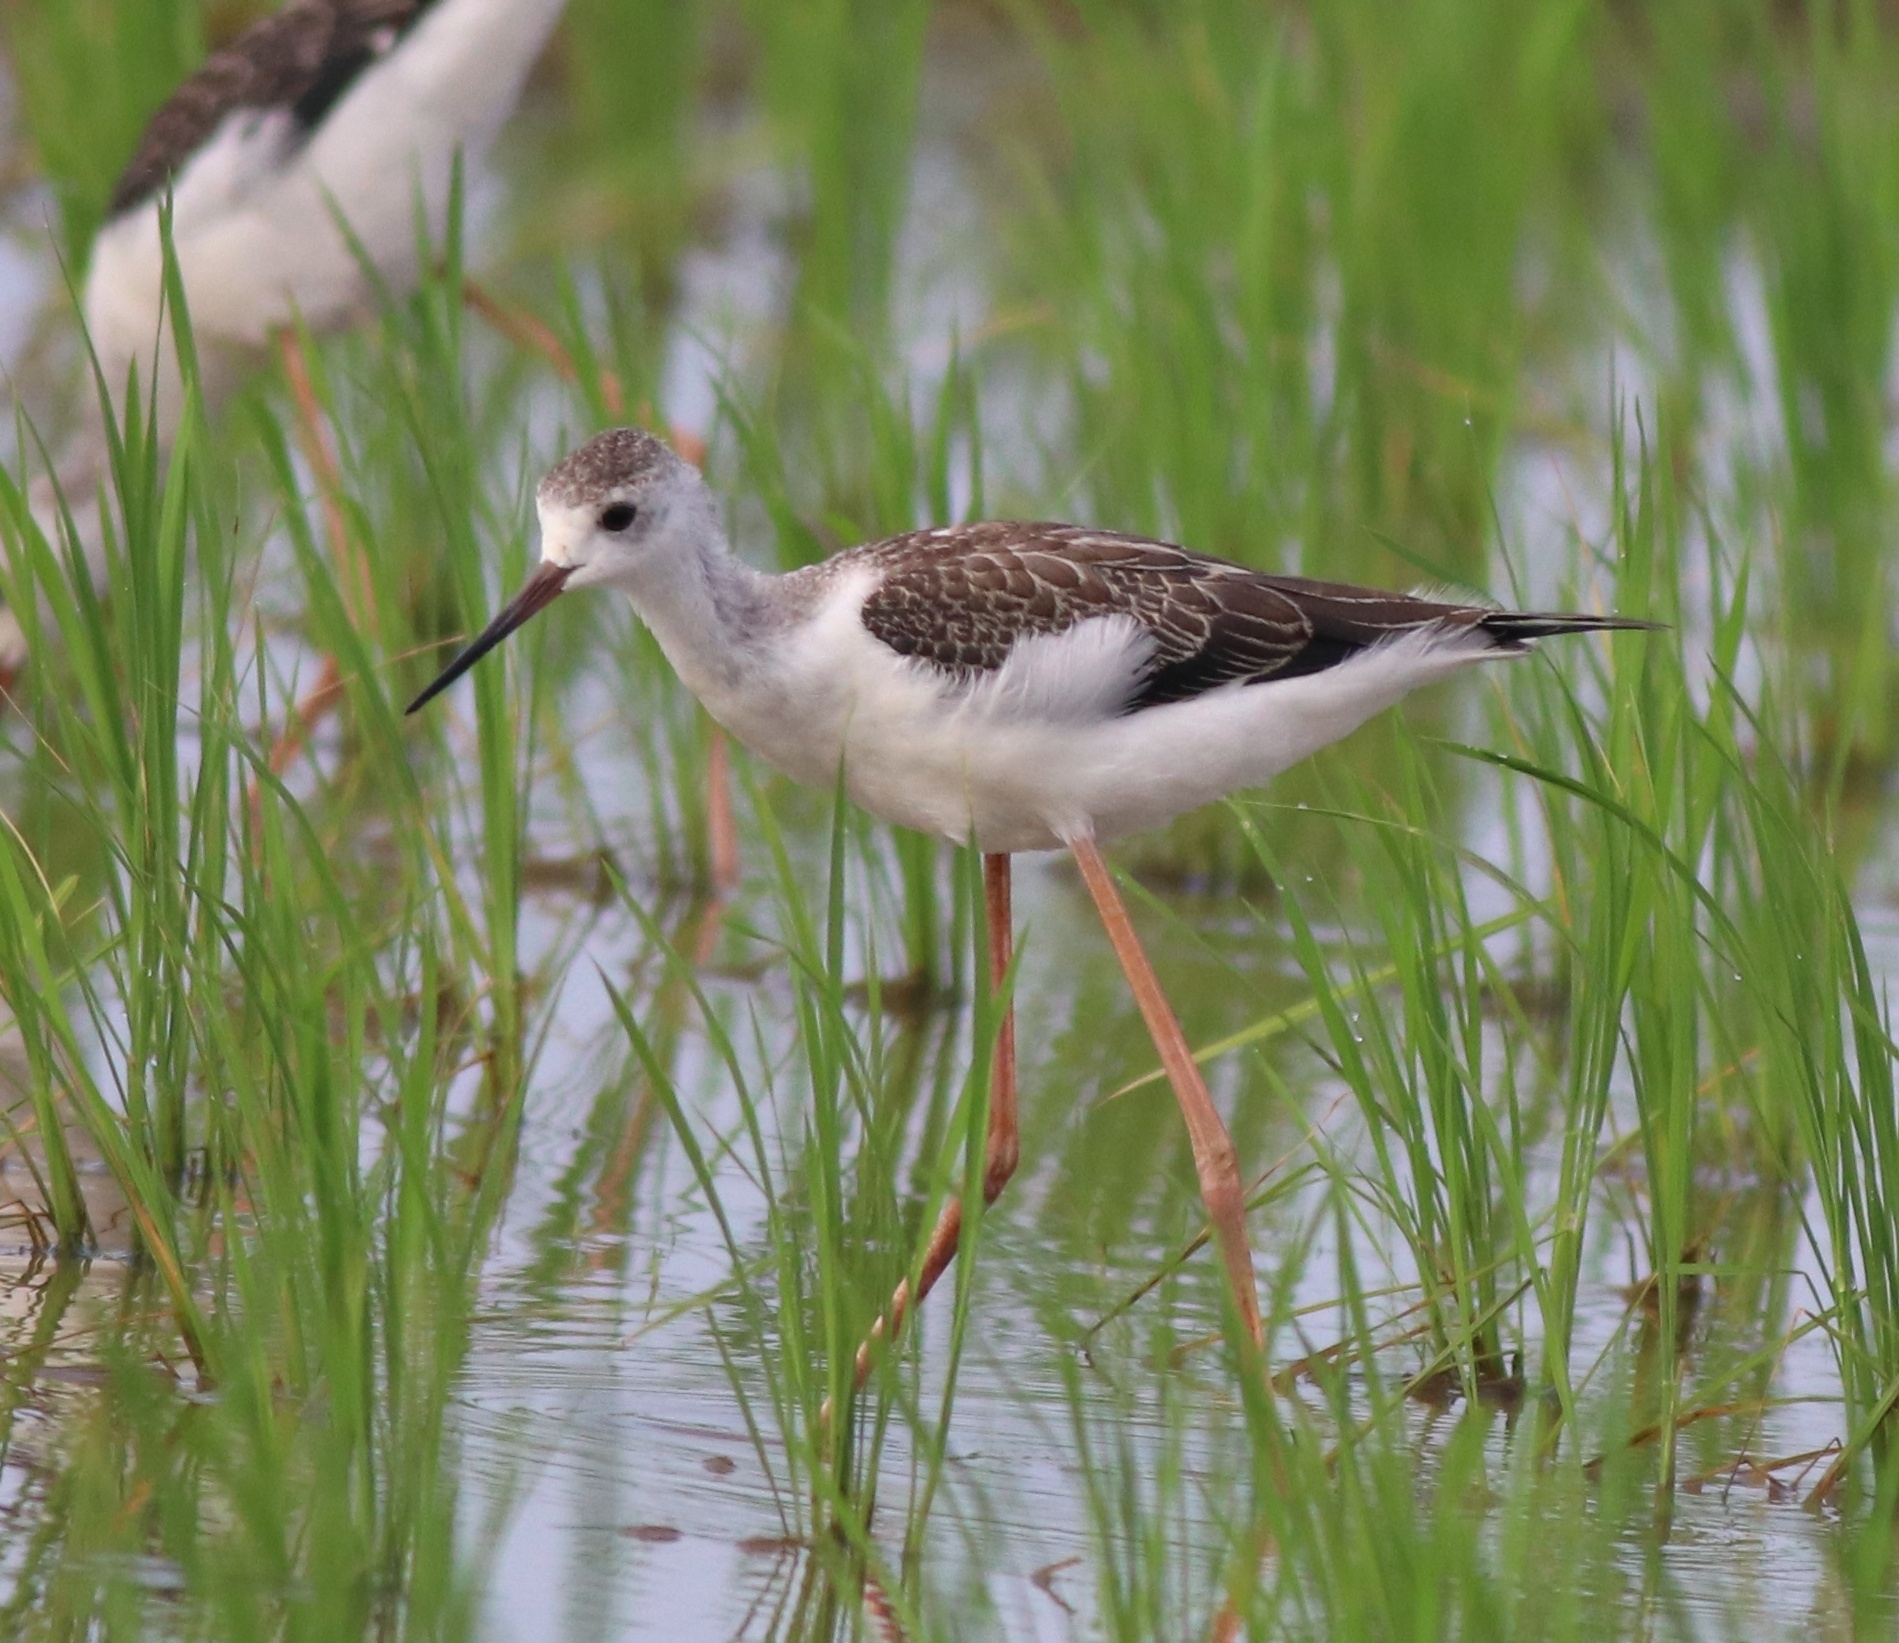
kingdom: Animalia
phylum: Chordata
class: Aves
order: Charadriiformes
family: Recurvirostridae
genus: Himantopus
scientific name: Himantopus himantopus
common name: Black-winged stilt
